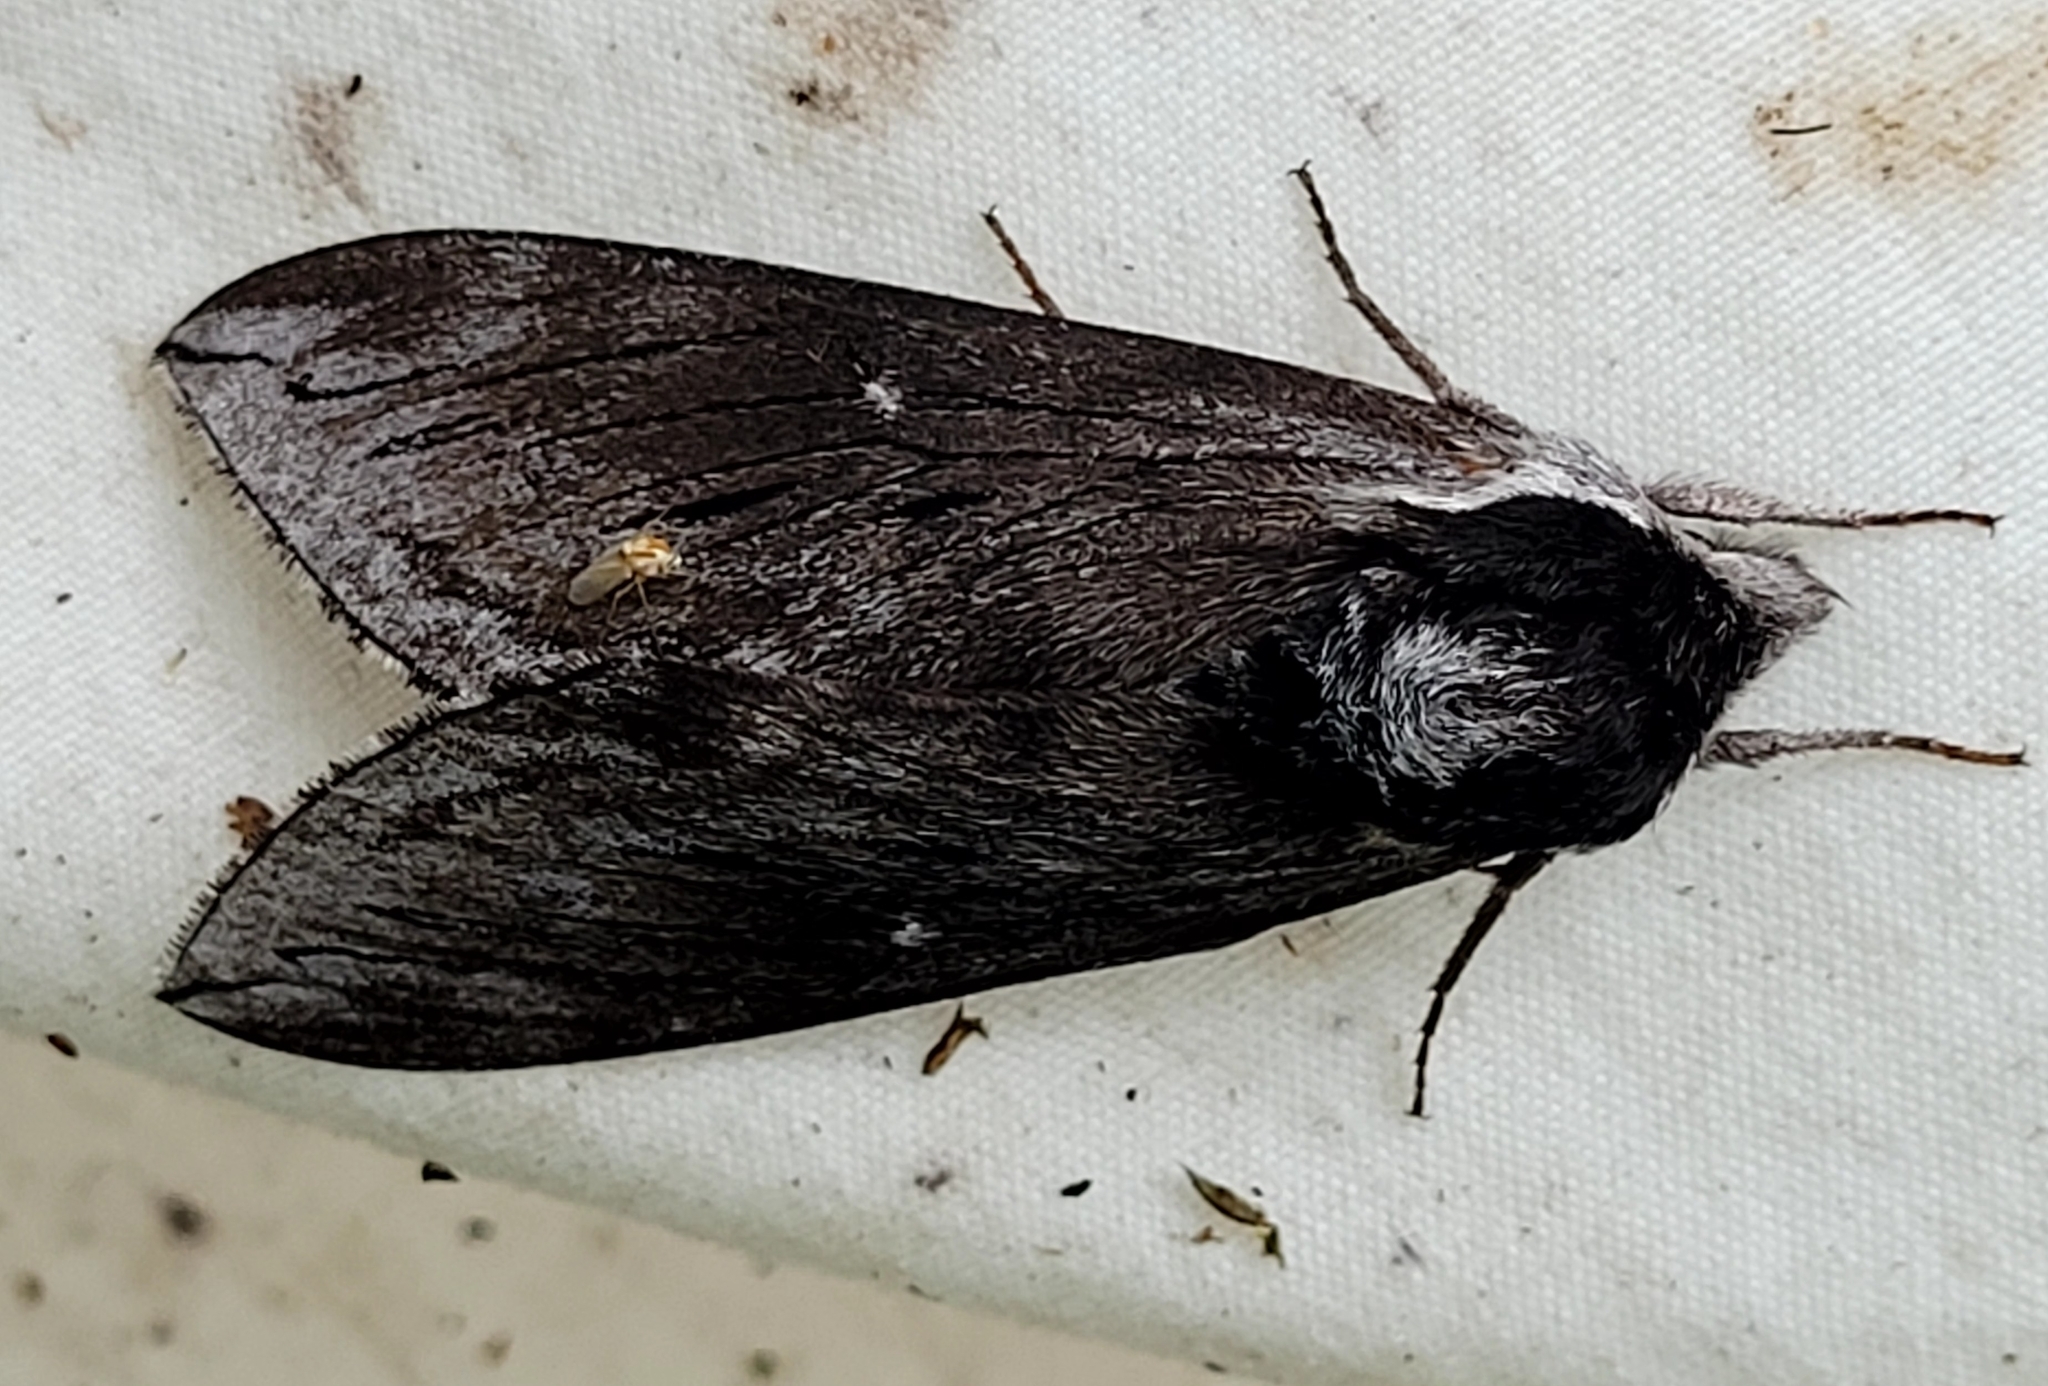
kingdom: Animalia
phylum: Arthropoda
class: Insecta
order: Lepidoptera
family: Sphingidae
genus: Sphinx
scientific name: Sphinx poecila
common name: Northern apple sphinx
